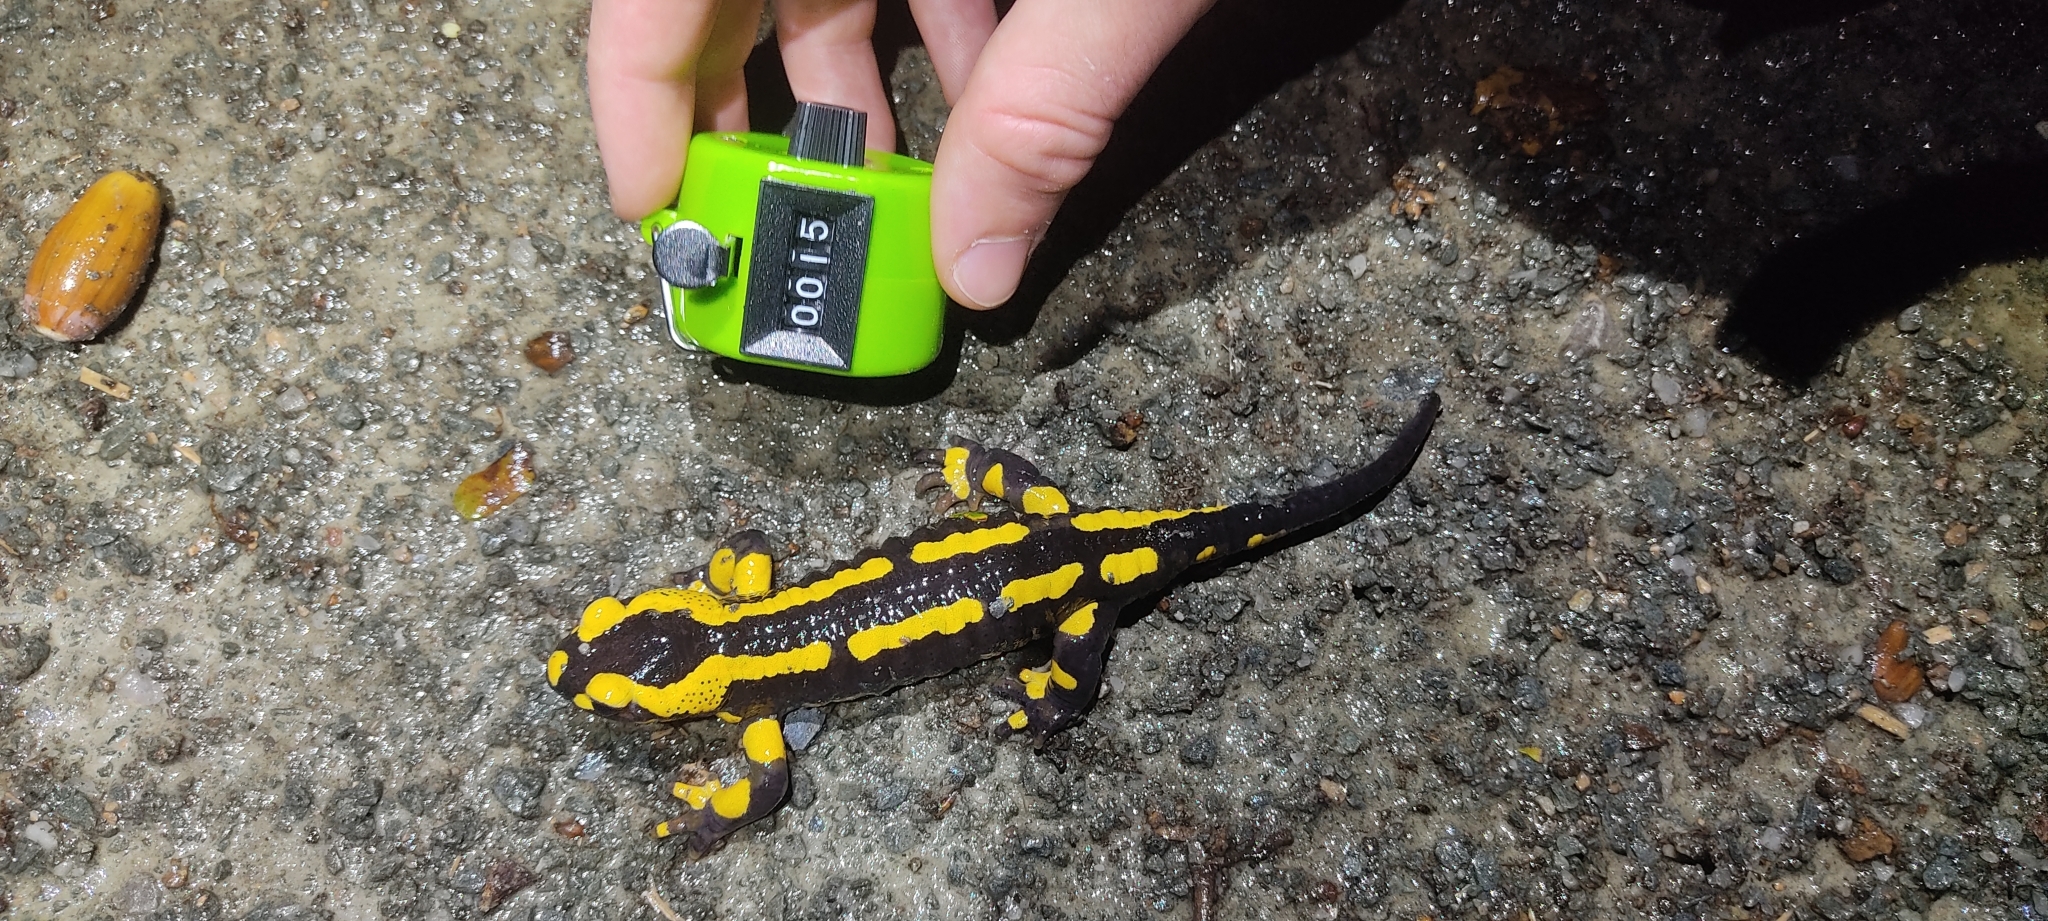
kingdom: Animalia
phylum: Chordata
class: Amphibia
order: Caudata
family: Salamandridae
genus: Salamandra
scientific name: Salamandra salamandra
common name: Fire salamander
